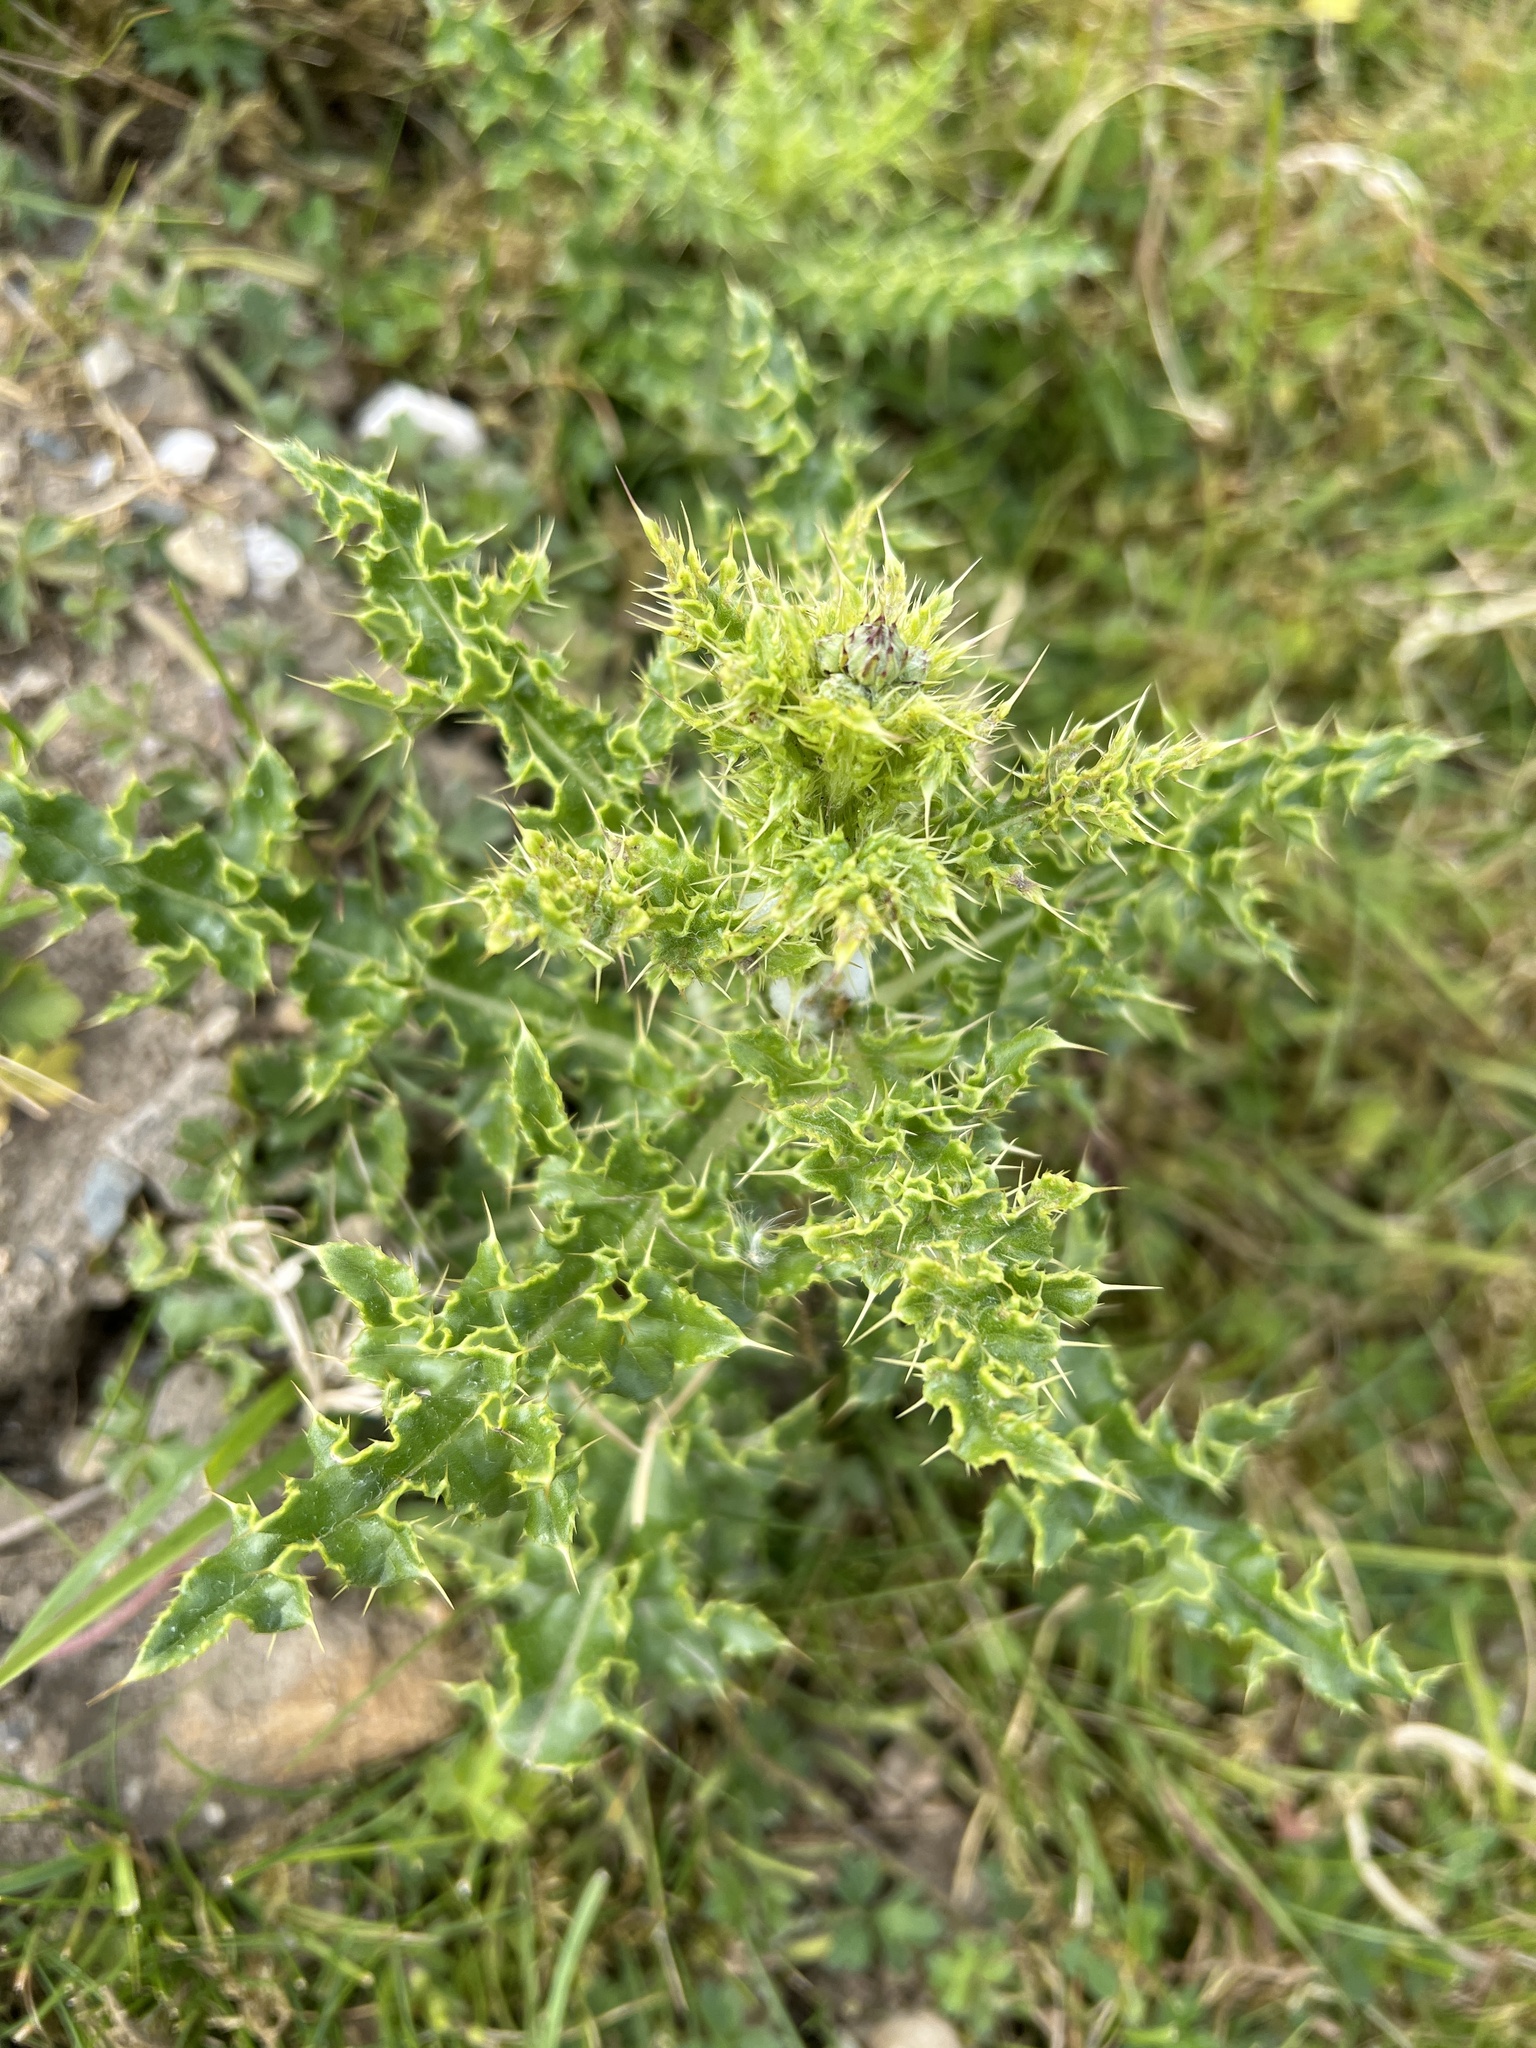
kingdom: Plantae
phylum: Tracheophyta
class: Magnoliopsida
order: Asterales
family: Asteraceae
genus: Cirsium
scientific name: Cirsium arvense
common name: Creeping thistle
